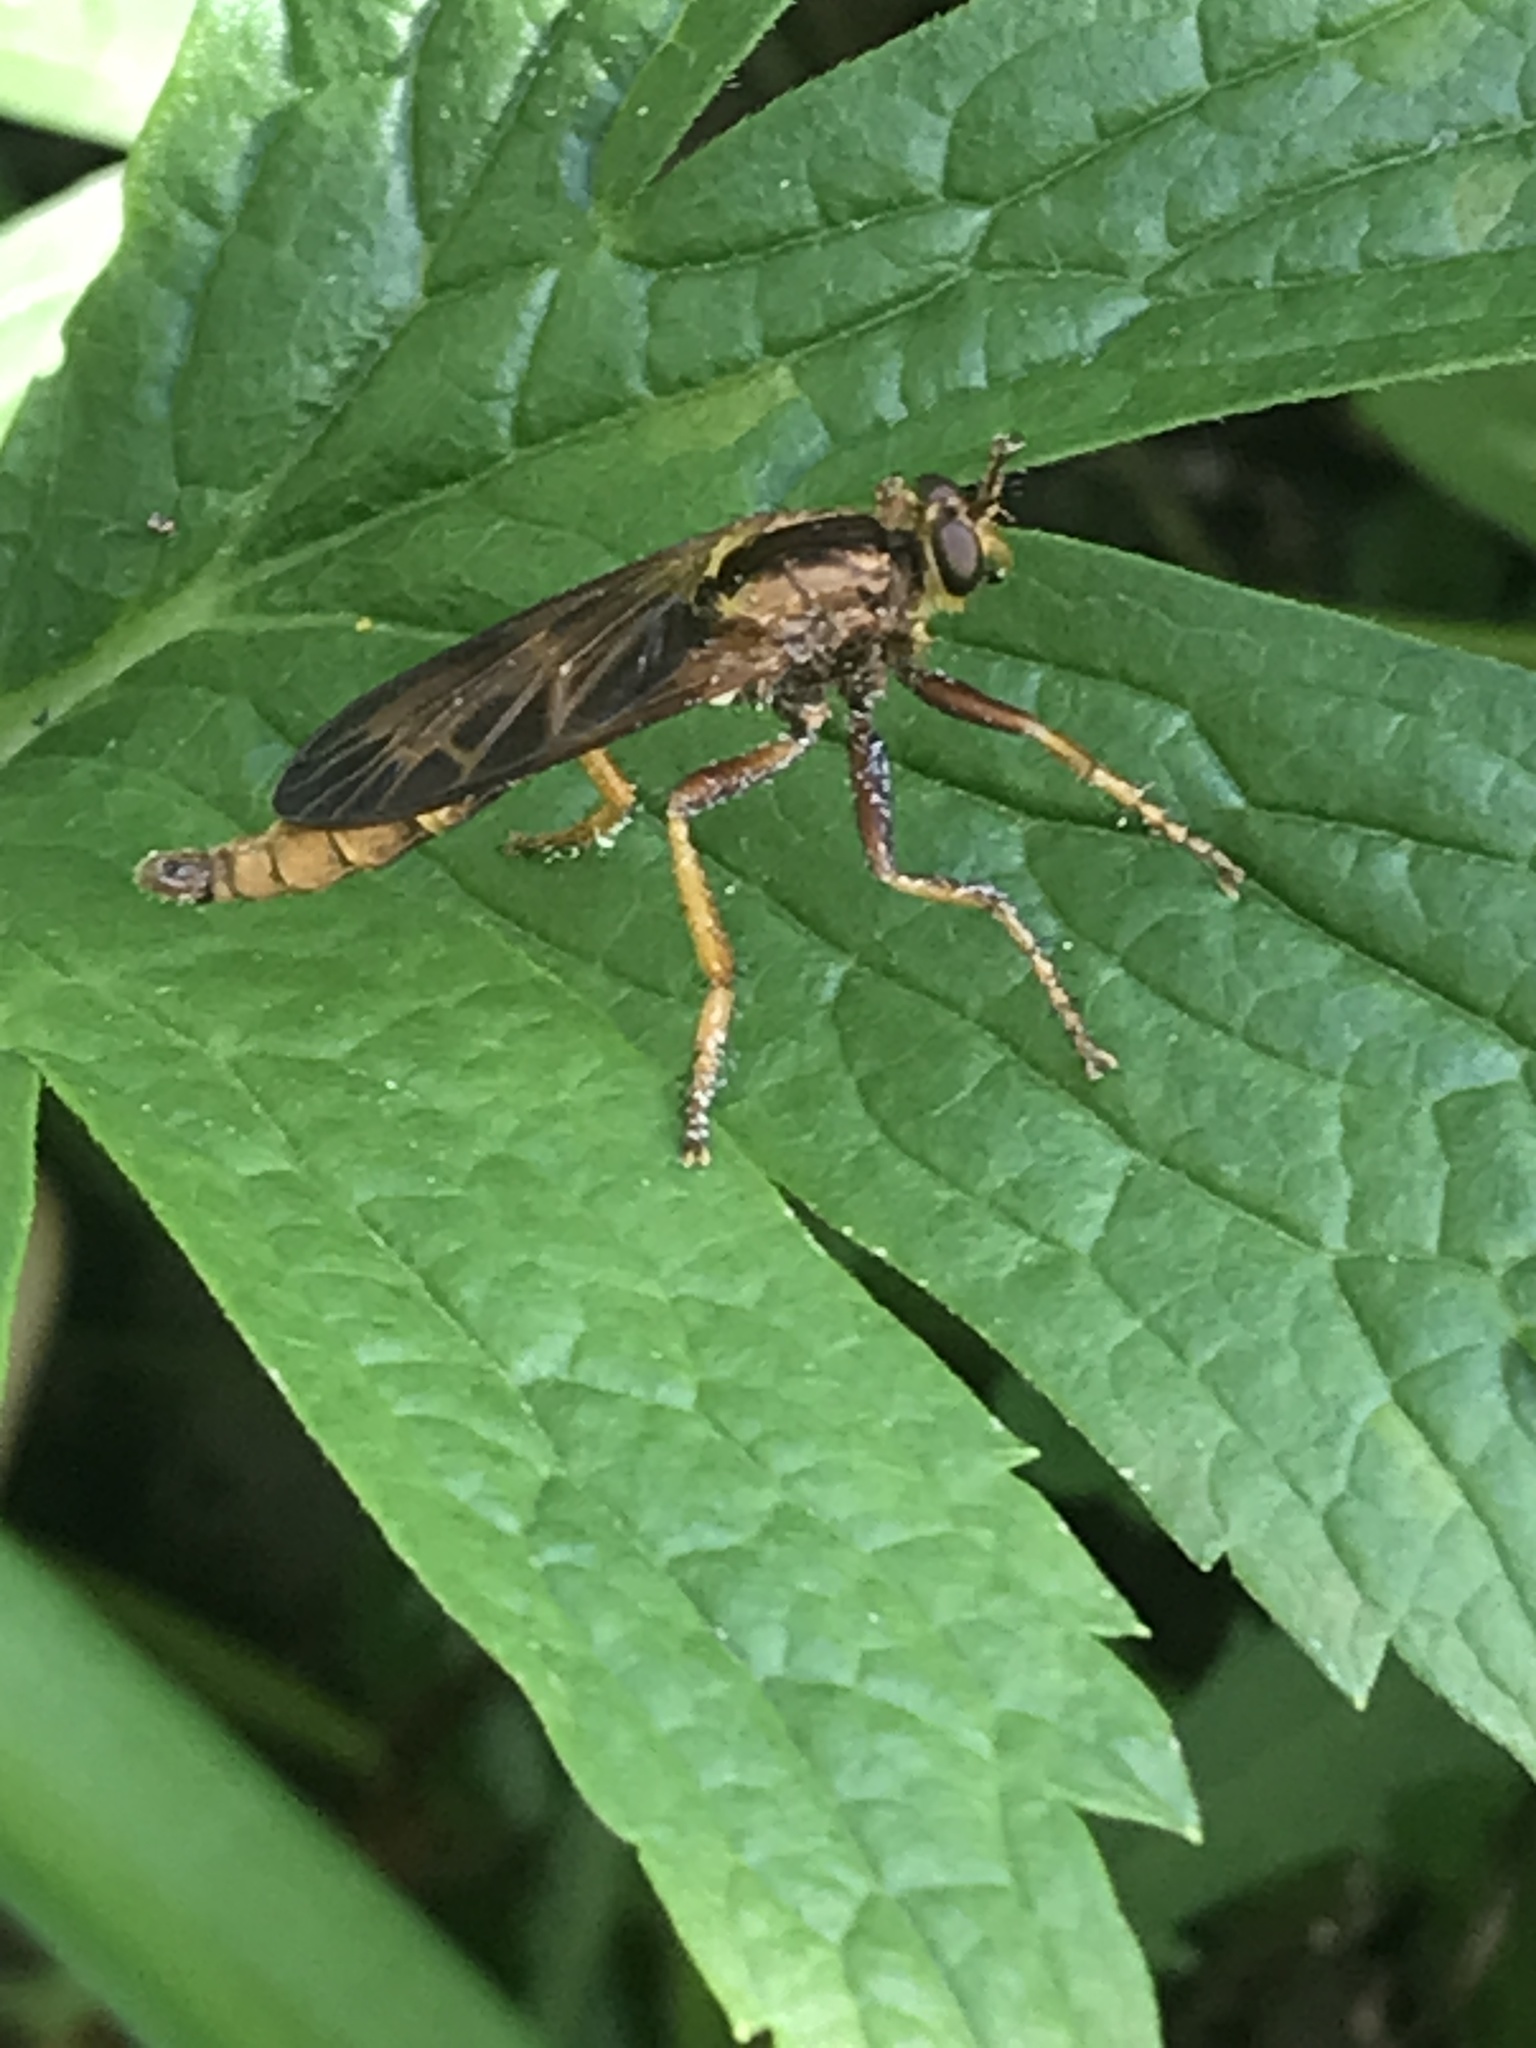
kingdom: Animalia
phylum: Arthropoda
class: Insecta
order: Diptera
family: Asilidae
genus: Asilus
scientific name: Asilus sericeus
